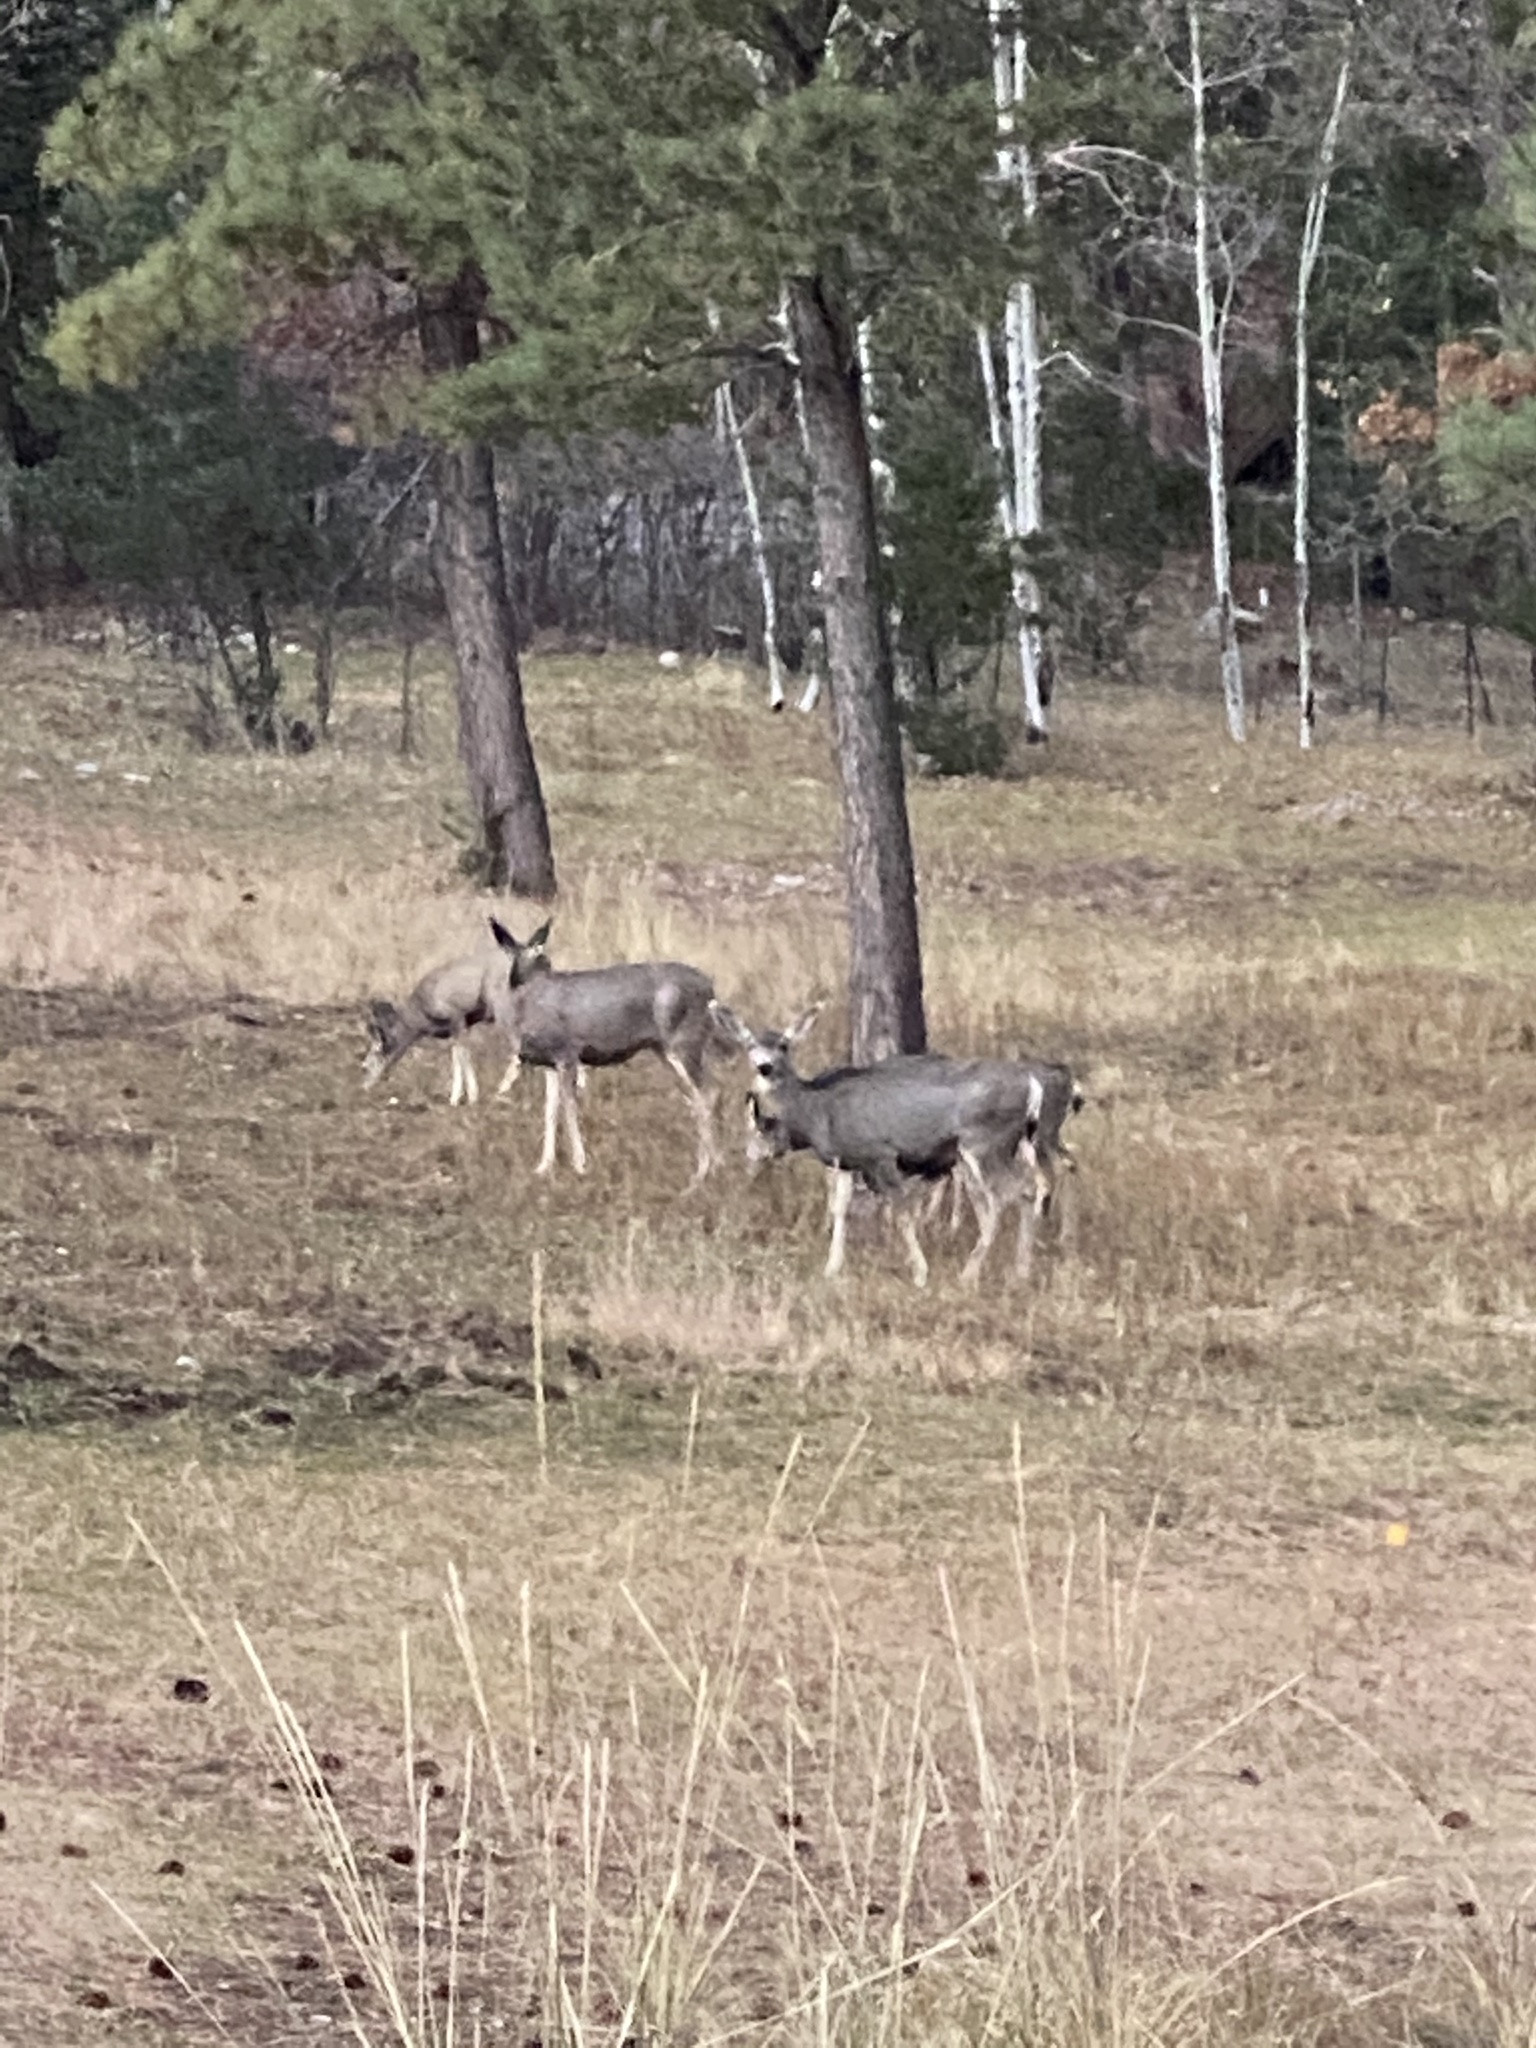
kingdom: Animalia
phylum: Chordata
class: Mammalia
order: Artiodactyla
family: Cervidae
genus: Odocoileus
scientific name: Odocoileus hemionus
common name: Mule deer
